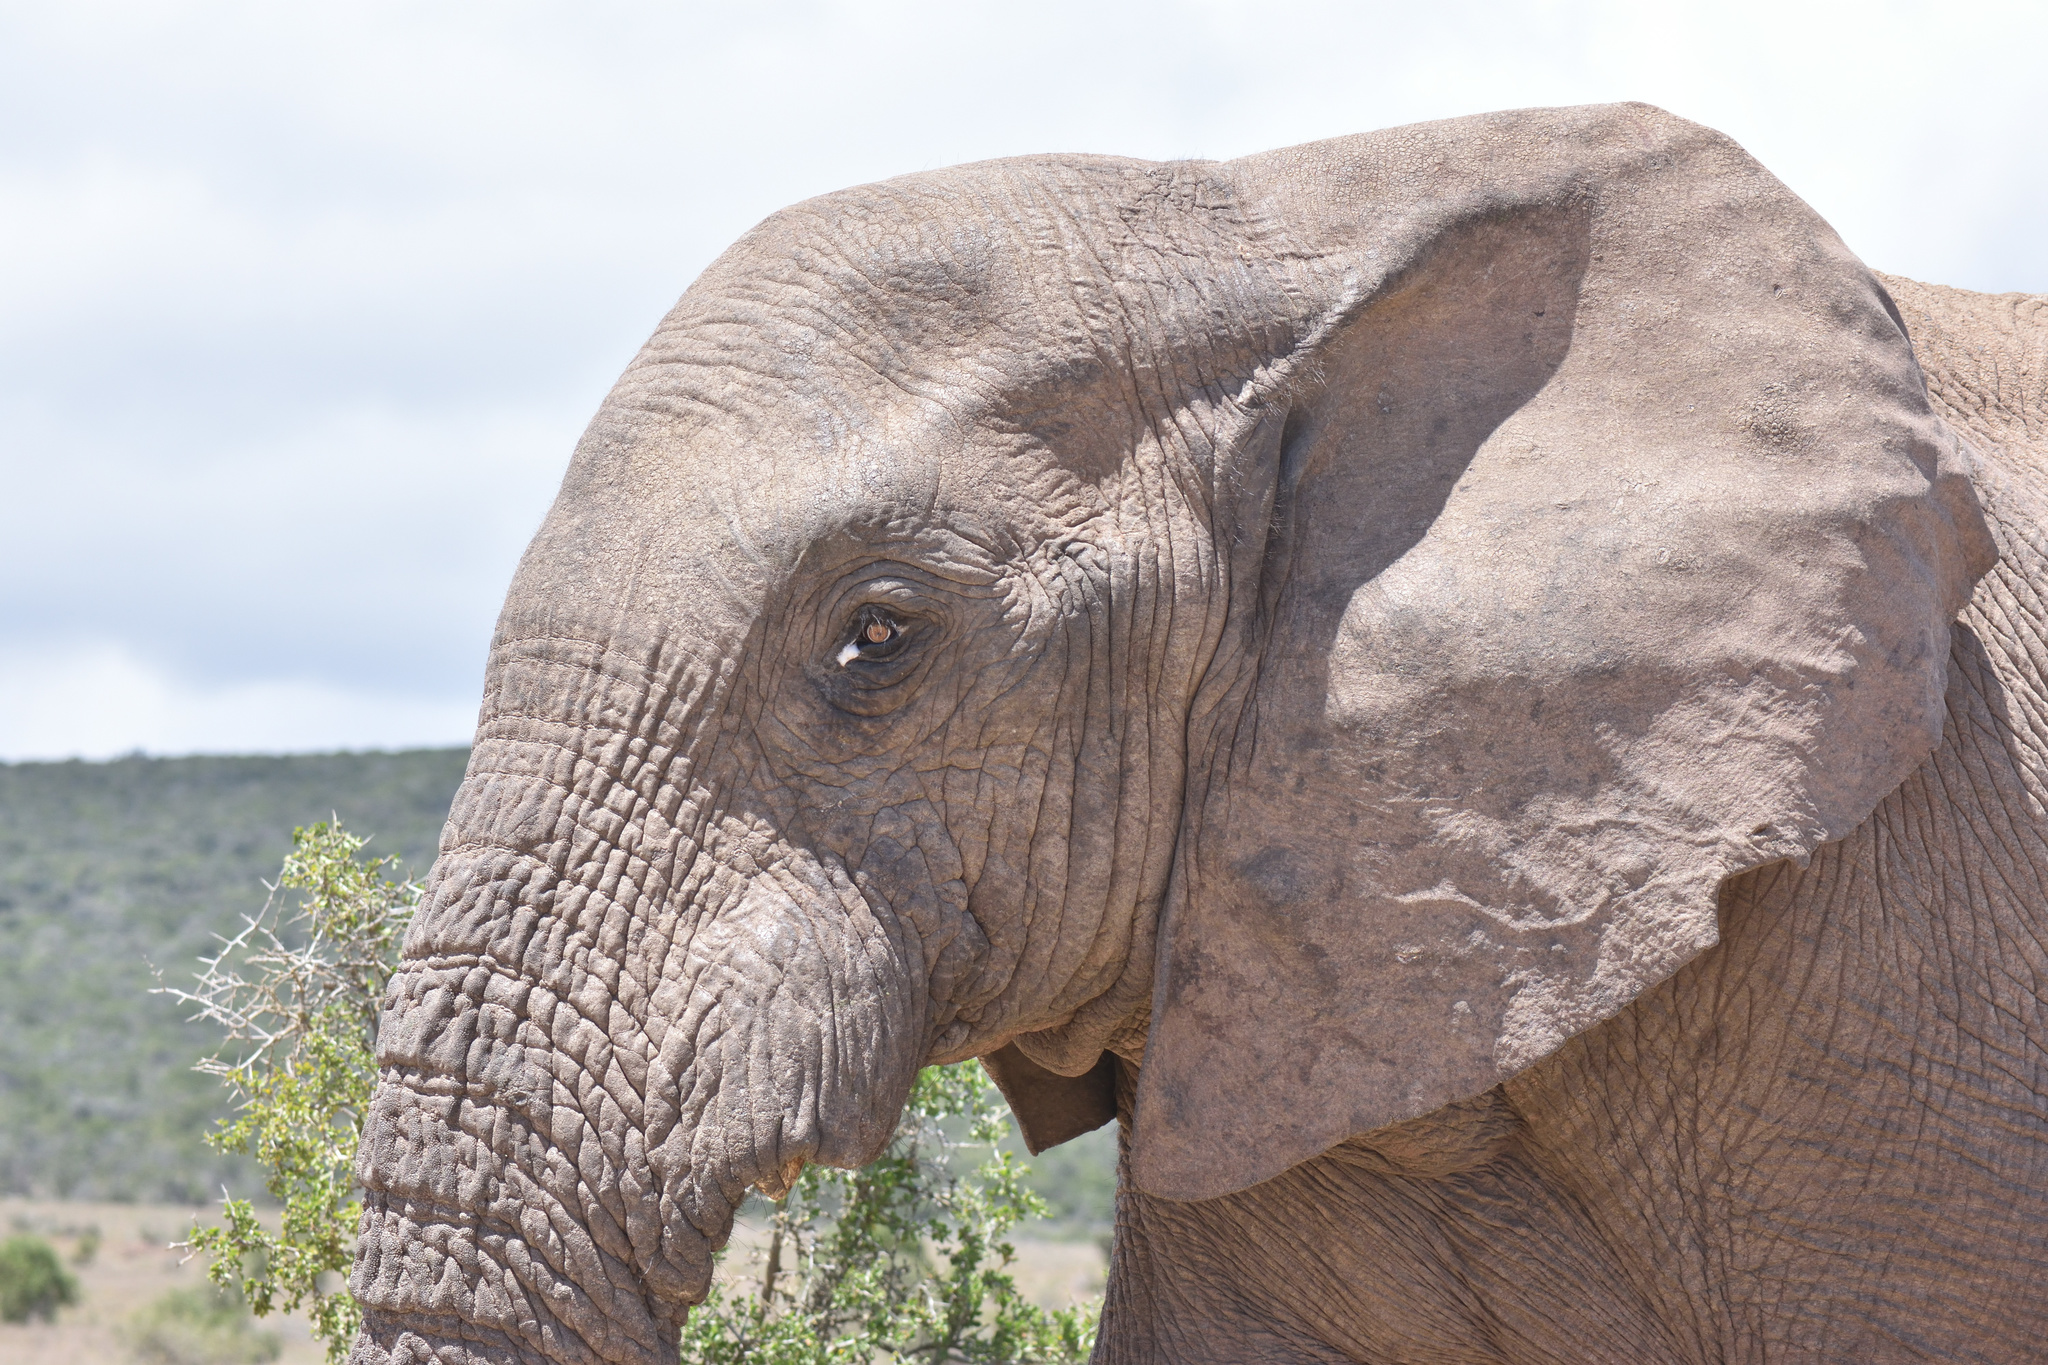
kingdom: Animalia
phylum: Chordata
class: Mammalia
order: Proboscidea
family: Elephantidae
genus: Loxodonta
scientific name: Loxodonta africana
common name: African elephant
